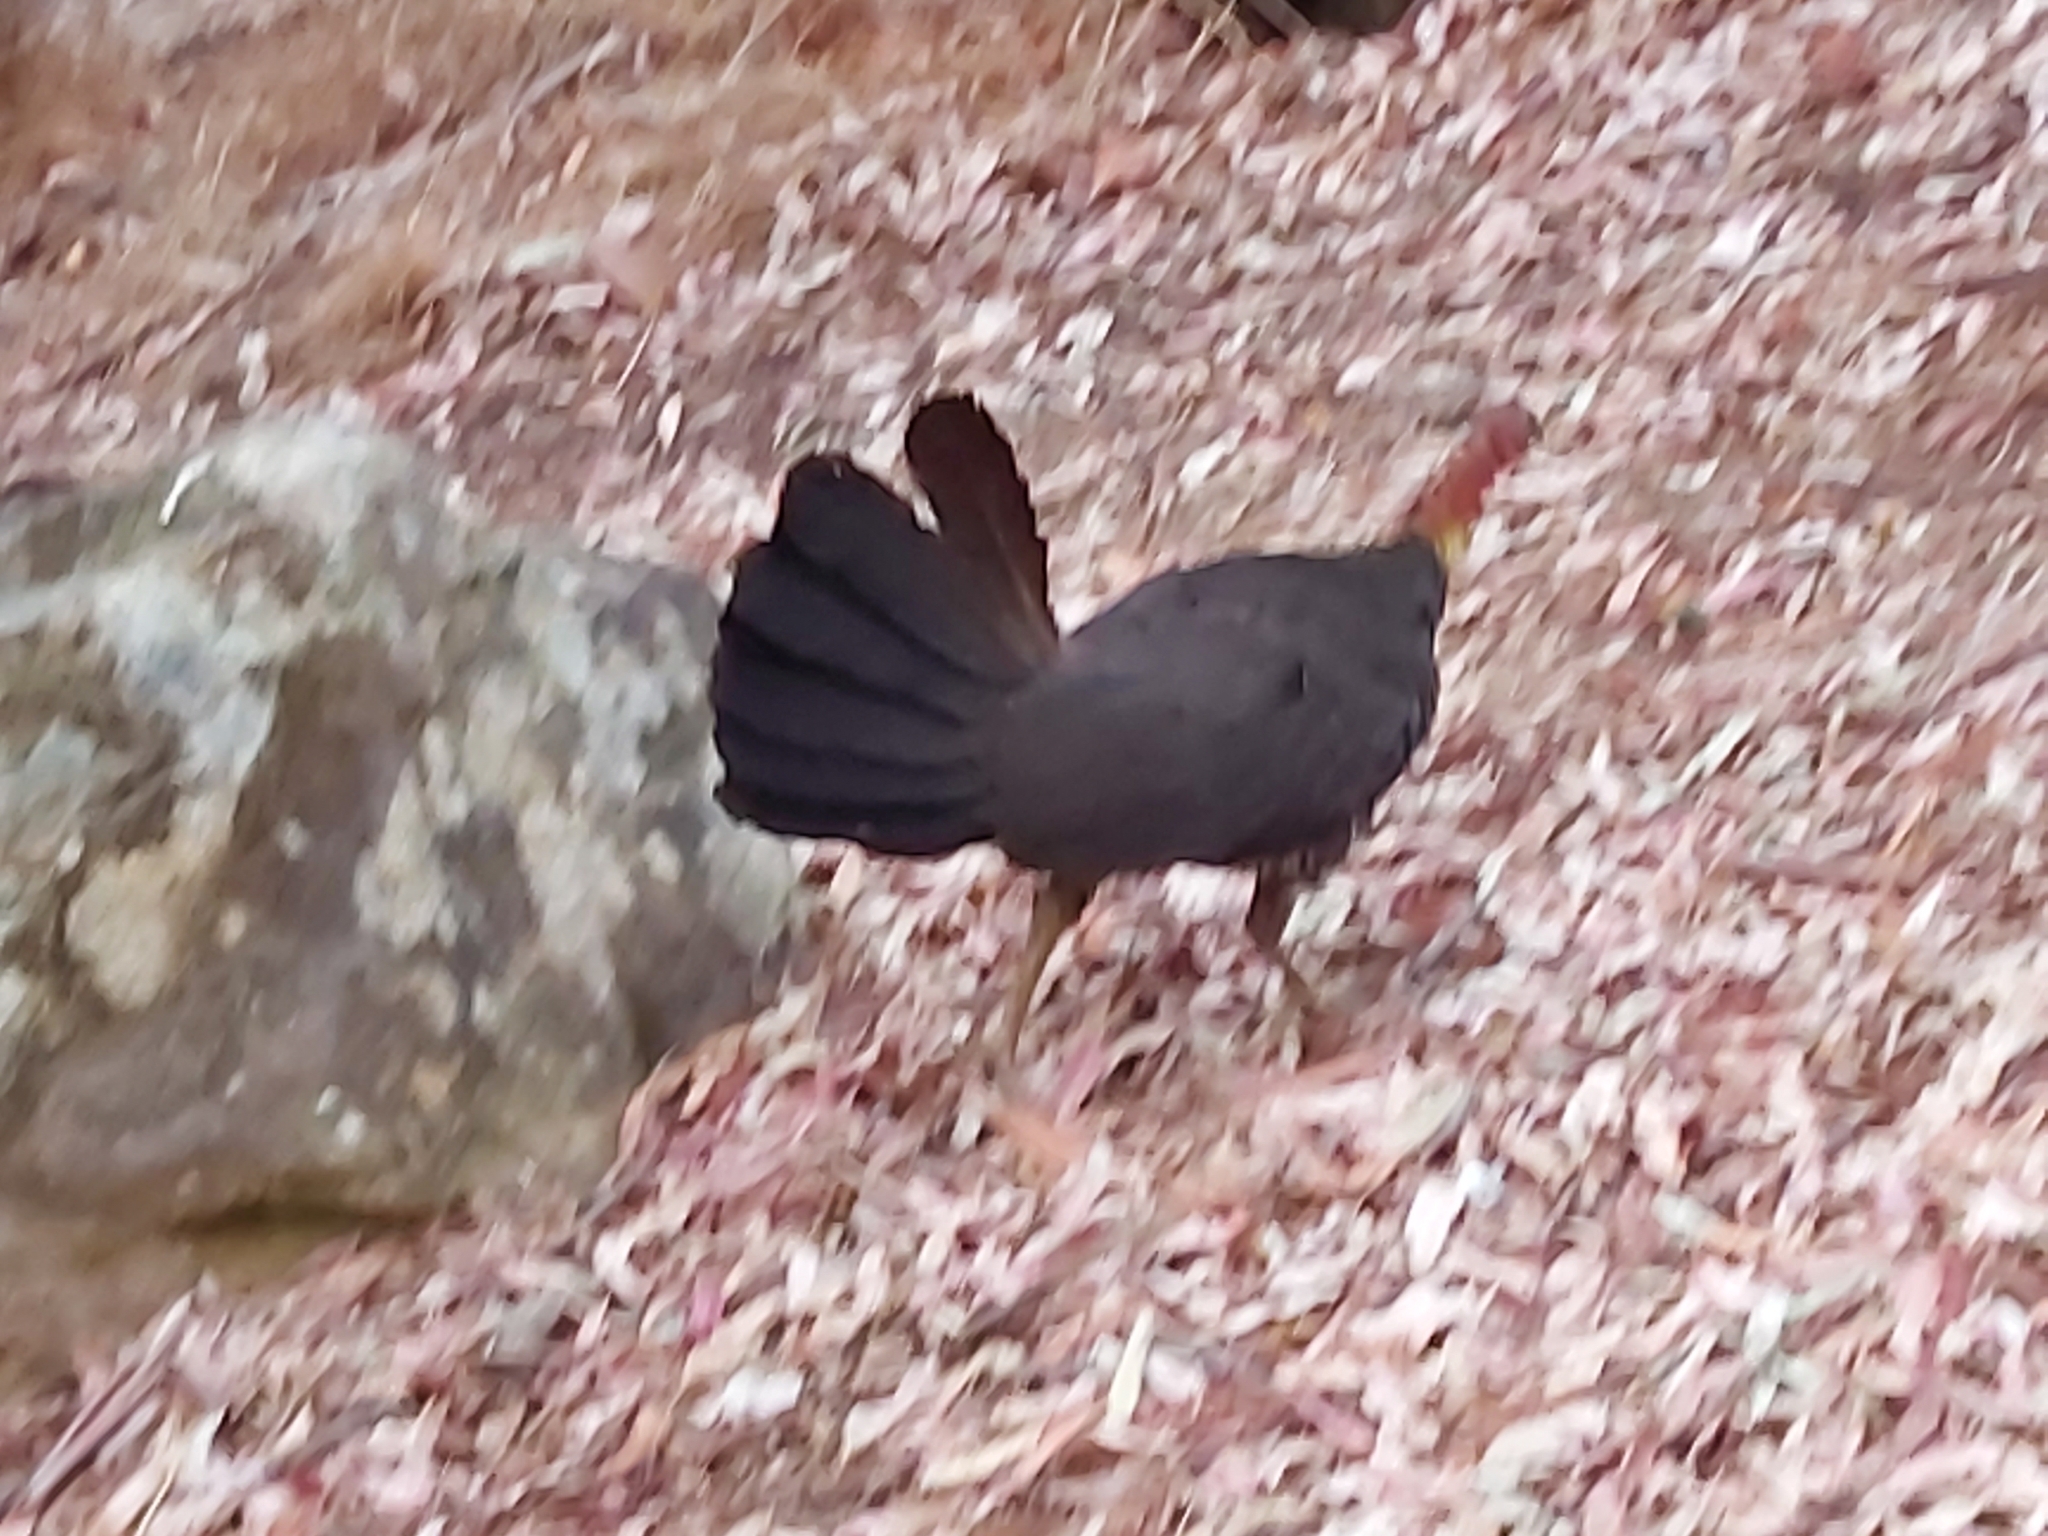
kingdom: Animalia
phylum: Chordata
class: Aves
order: Galliformes
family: Megapodiidae
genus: Alectura
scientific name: Alectura lathami
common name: Australian brushturkey
